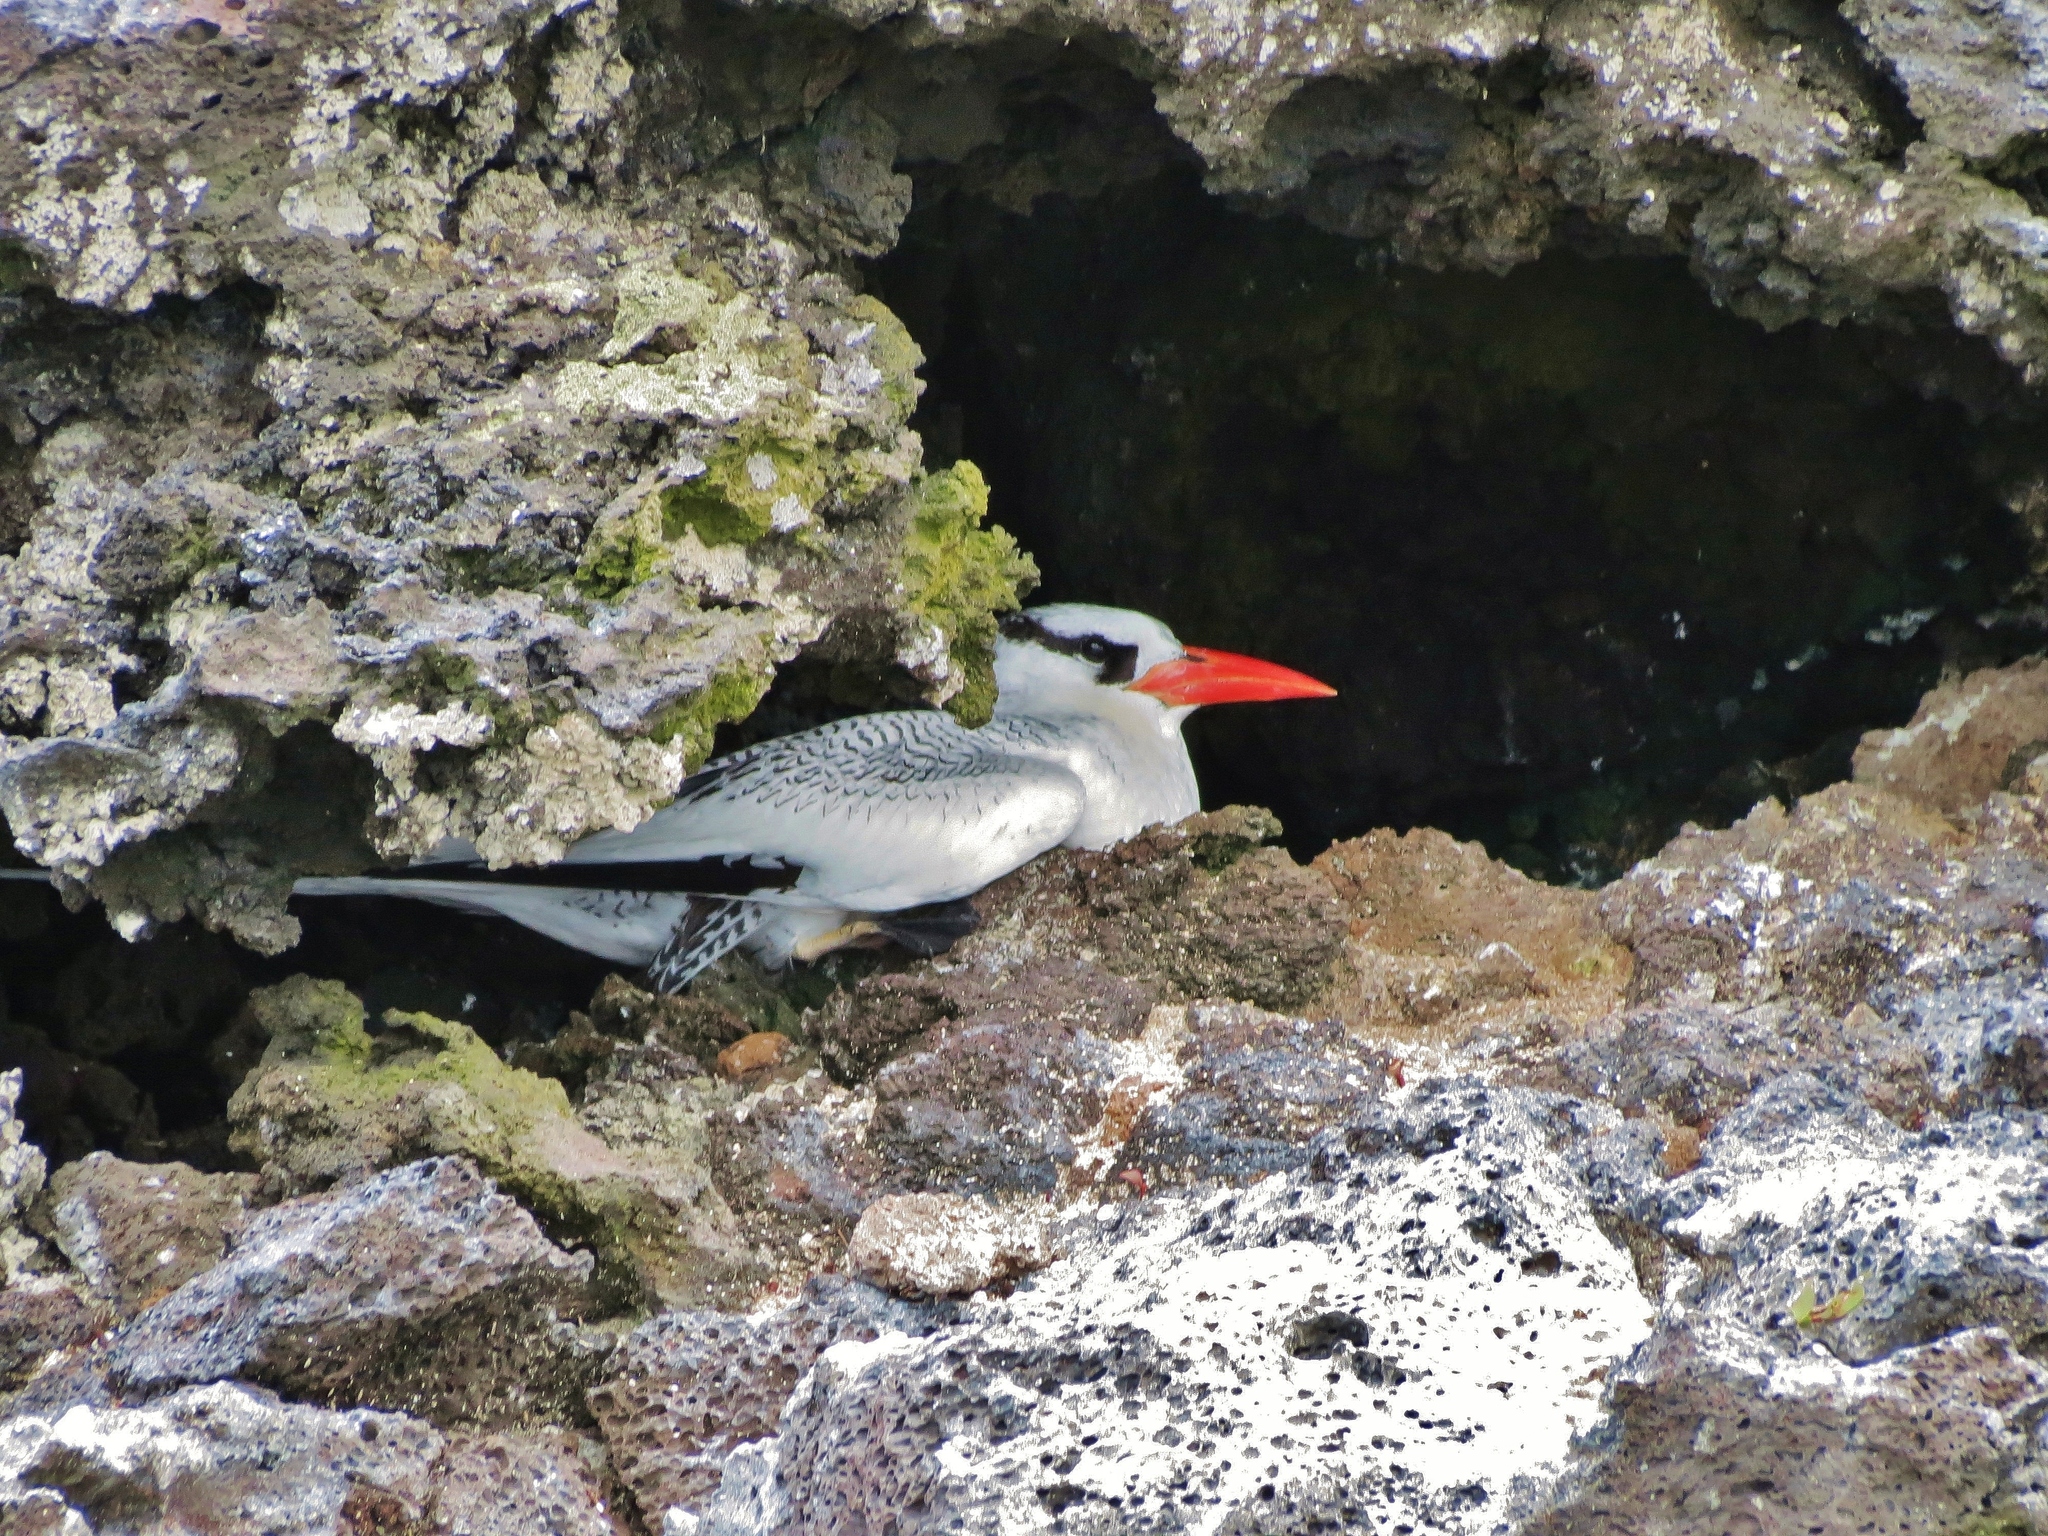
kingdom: Animalia
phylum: Chordata
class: Aves
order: Phaethontiformes
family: Phaethontidae
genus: Phaethon
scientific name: Phaethon aethereus
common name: Red-billed tropicbird
